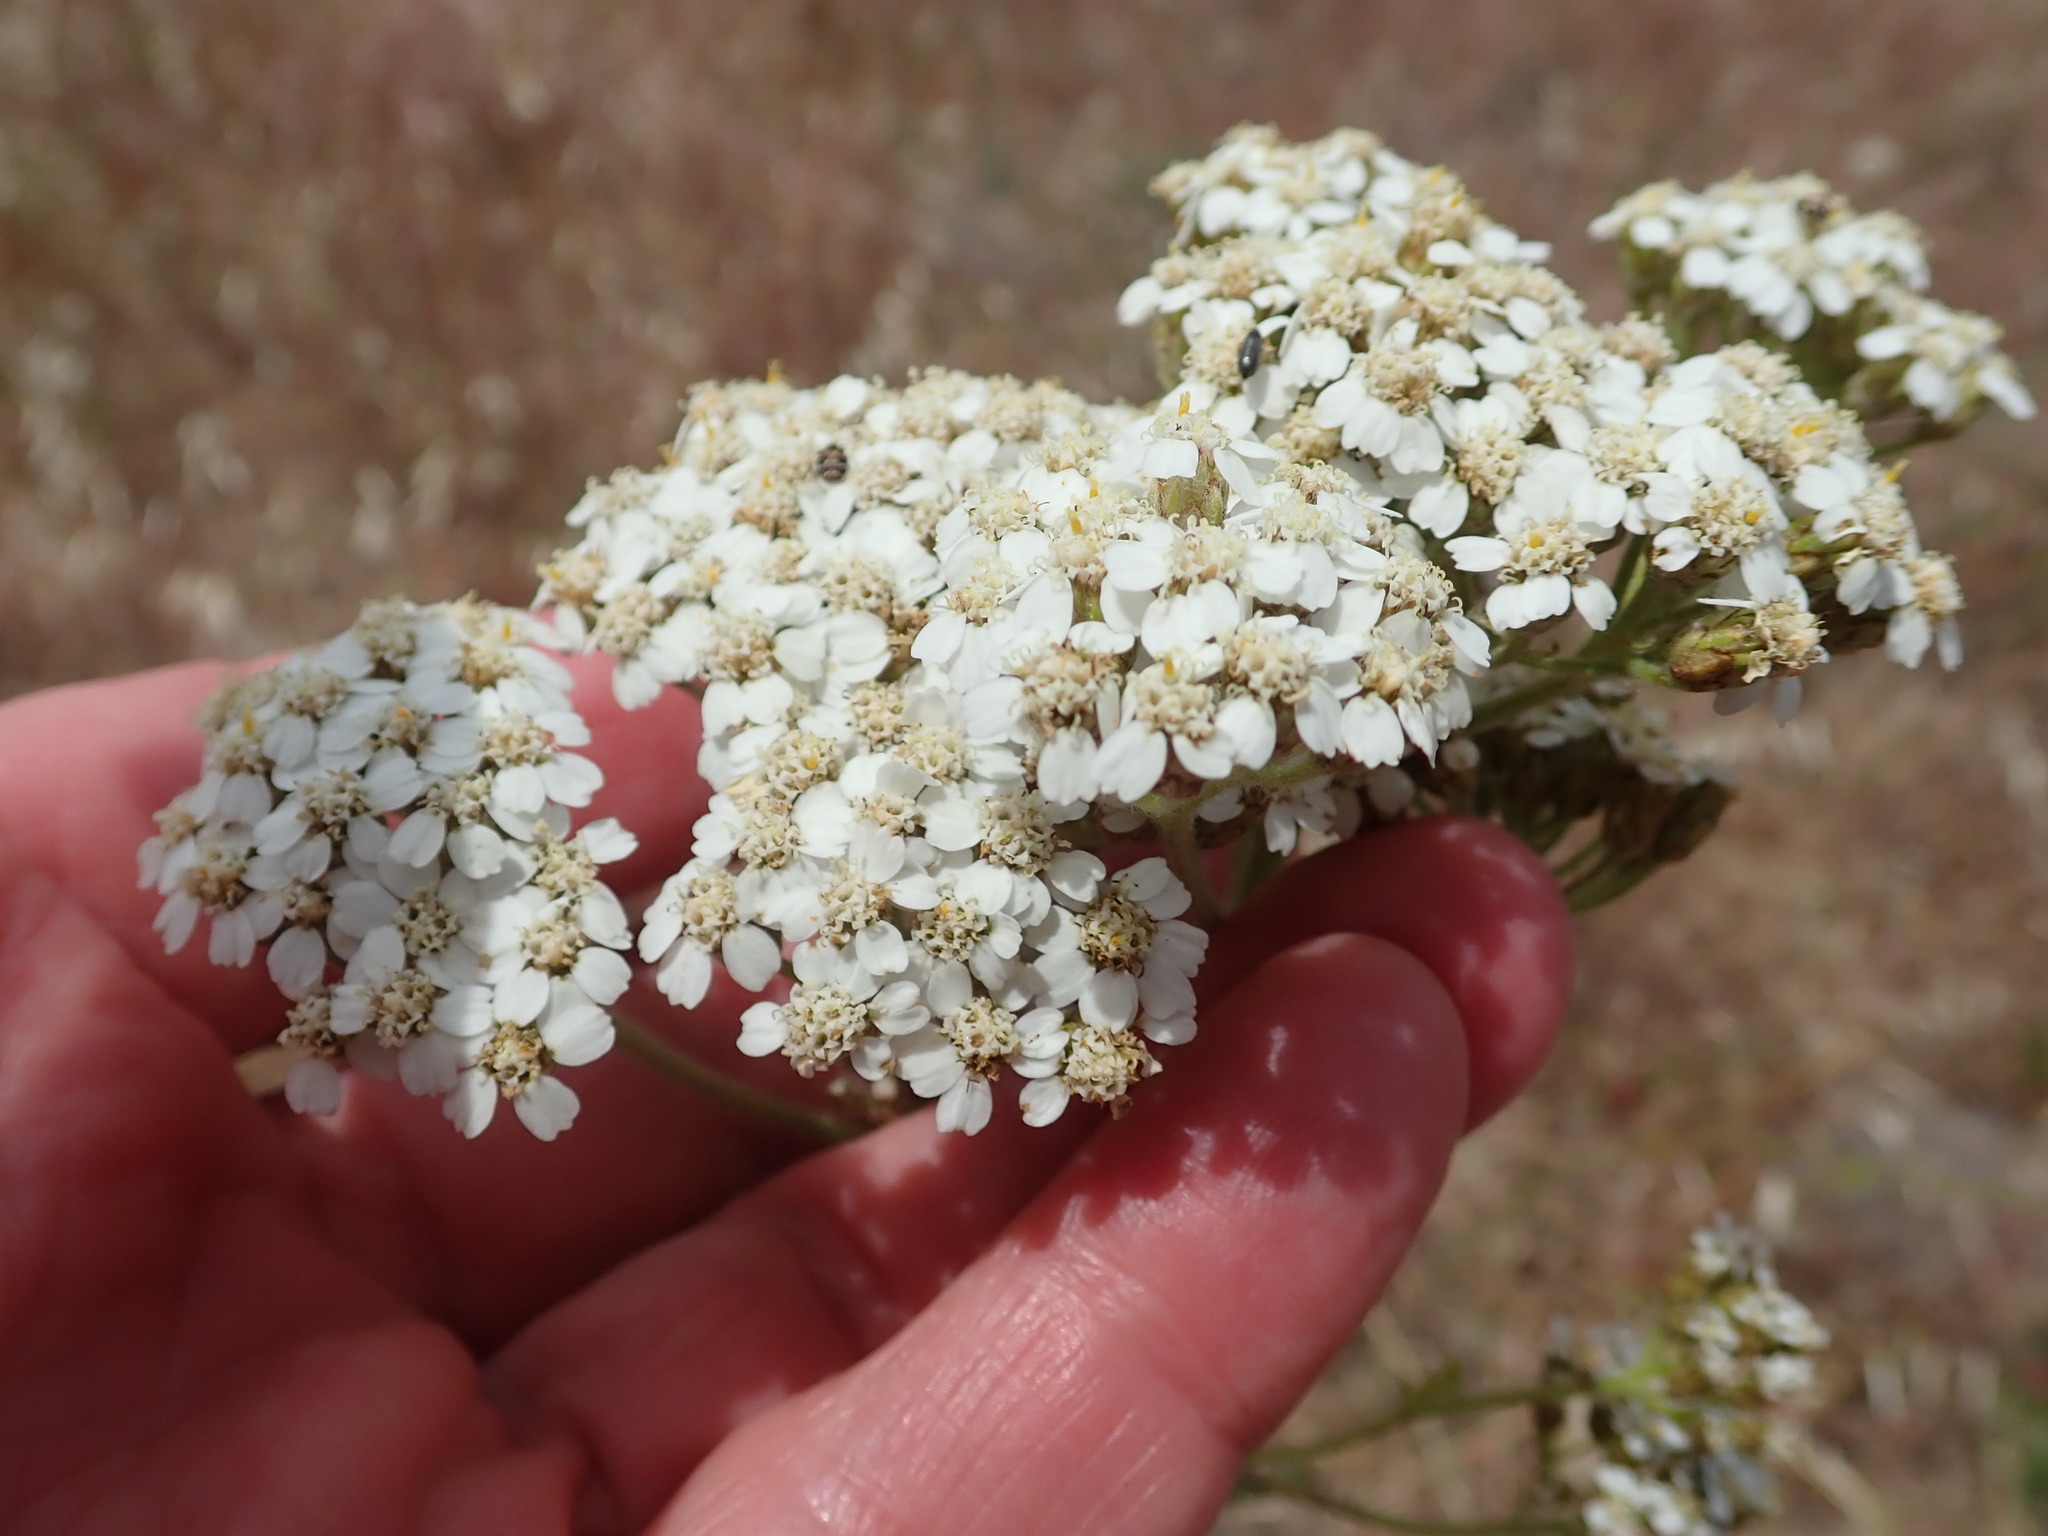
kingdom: Plantae
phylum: Tracheophyta
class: Magnoliopsida
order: Asterales
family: Asteraceae
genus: Achillea
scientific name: Achillea millefolium
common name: Yarrow
